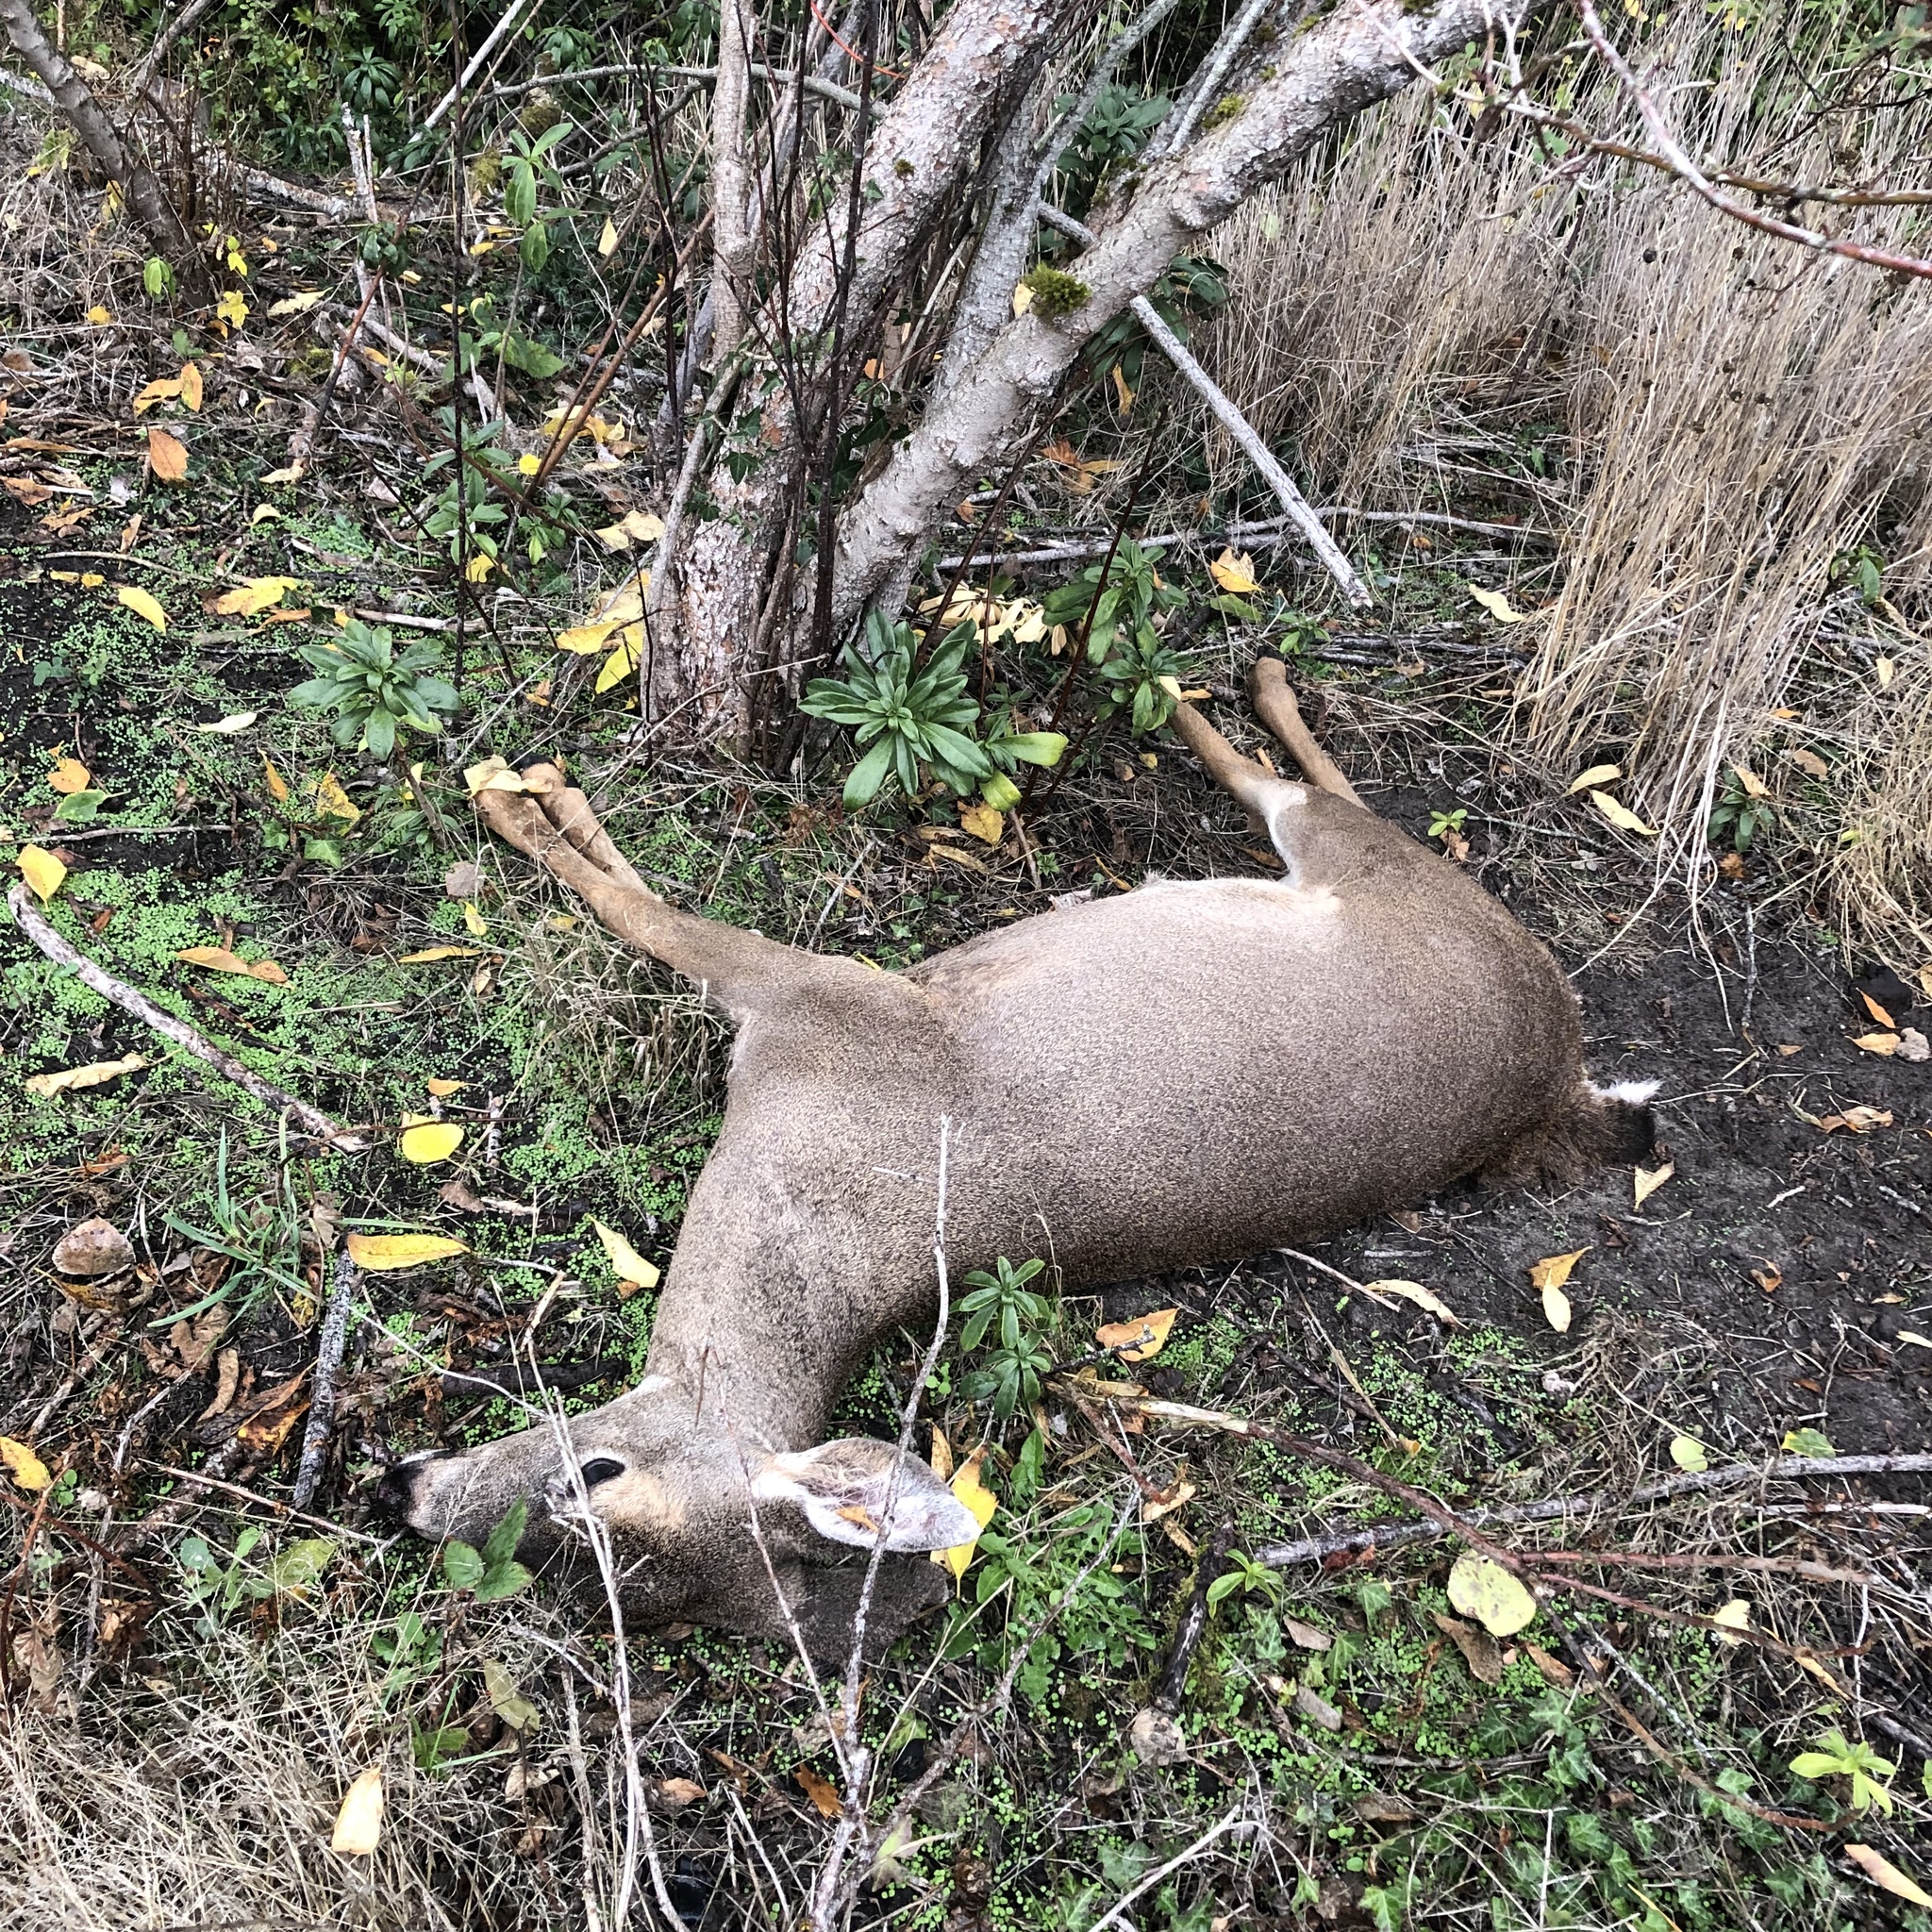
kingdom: Animalia
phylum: Chordata
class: Mammalia
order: Artiodactyla
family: Cervidae
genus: Odocoileus
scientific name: Odocoileus hemionus
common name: Mule deer
